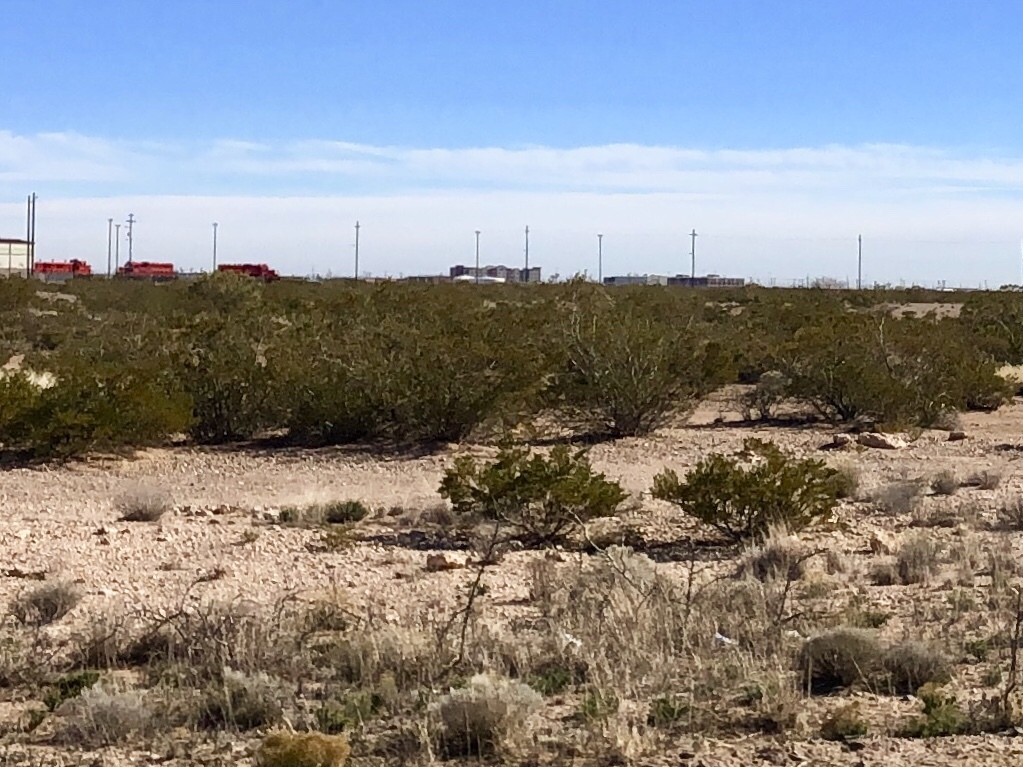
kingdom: Plantae
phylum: Tracheophyta
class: Magnoliopsida
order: Zygophyllales
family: Zygophyllaceae
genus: Larrea
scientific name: Larrea tridentata
